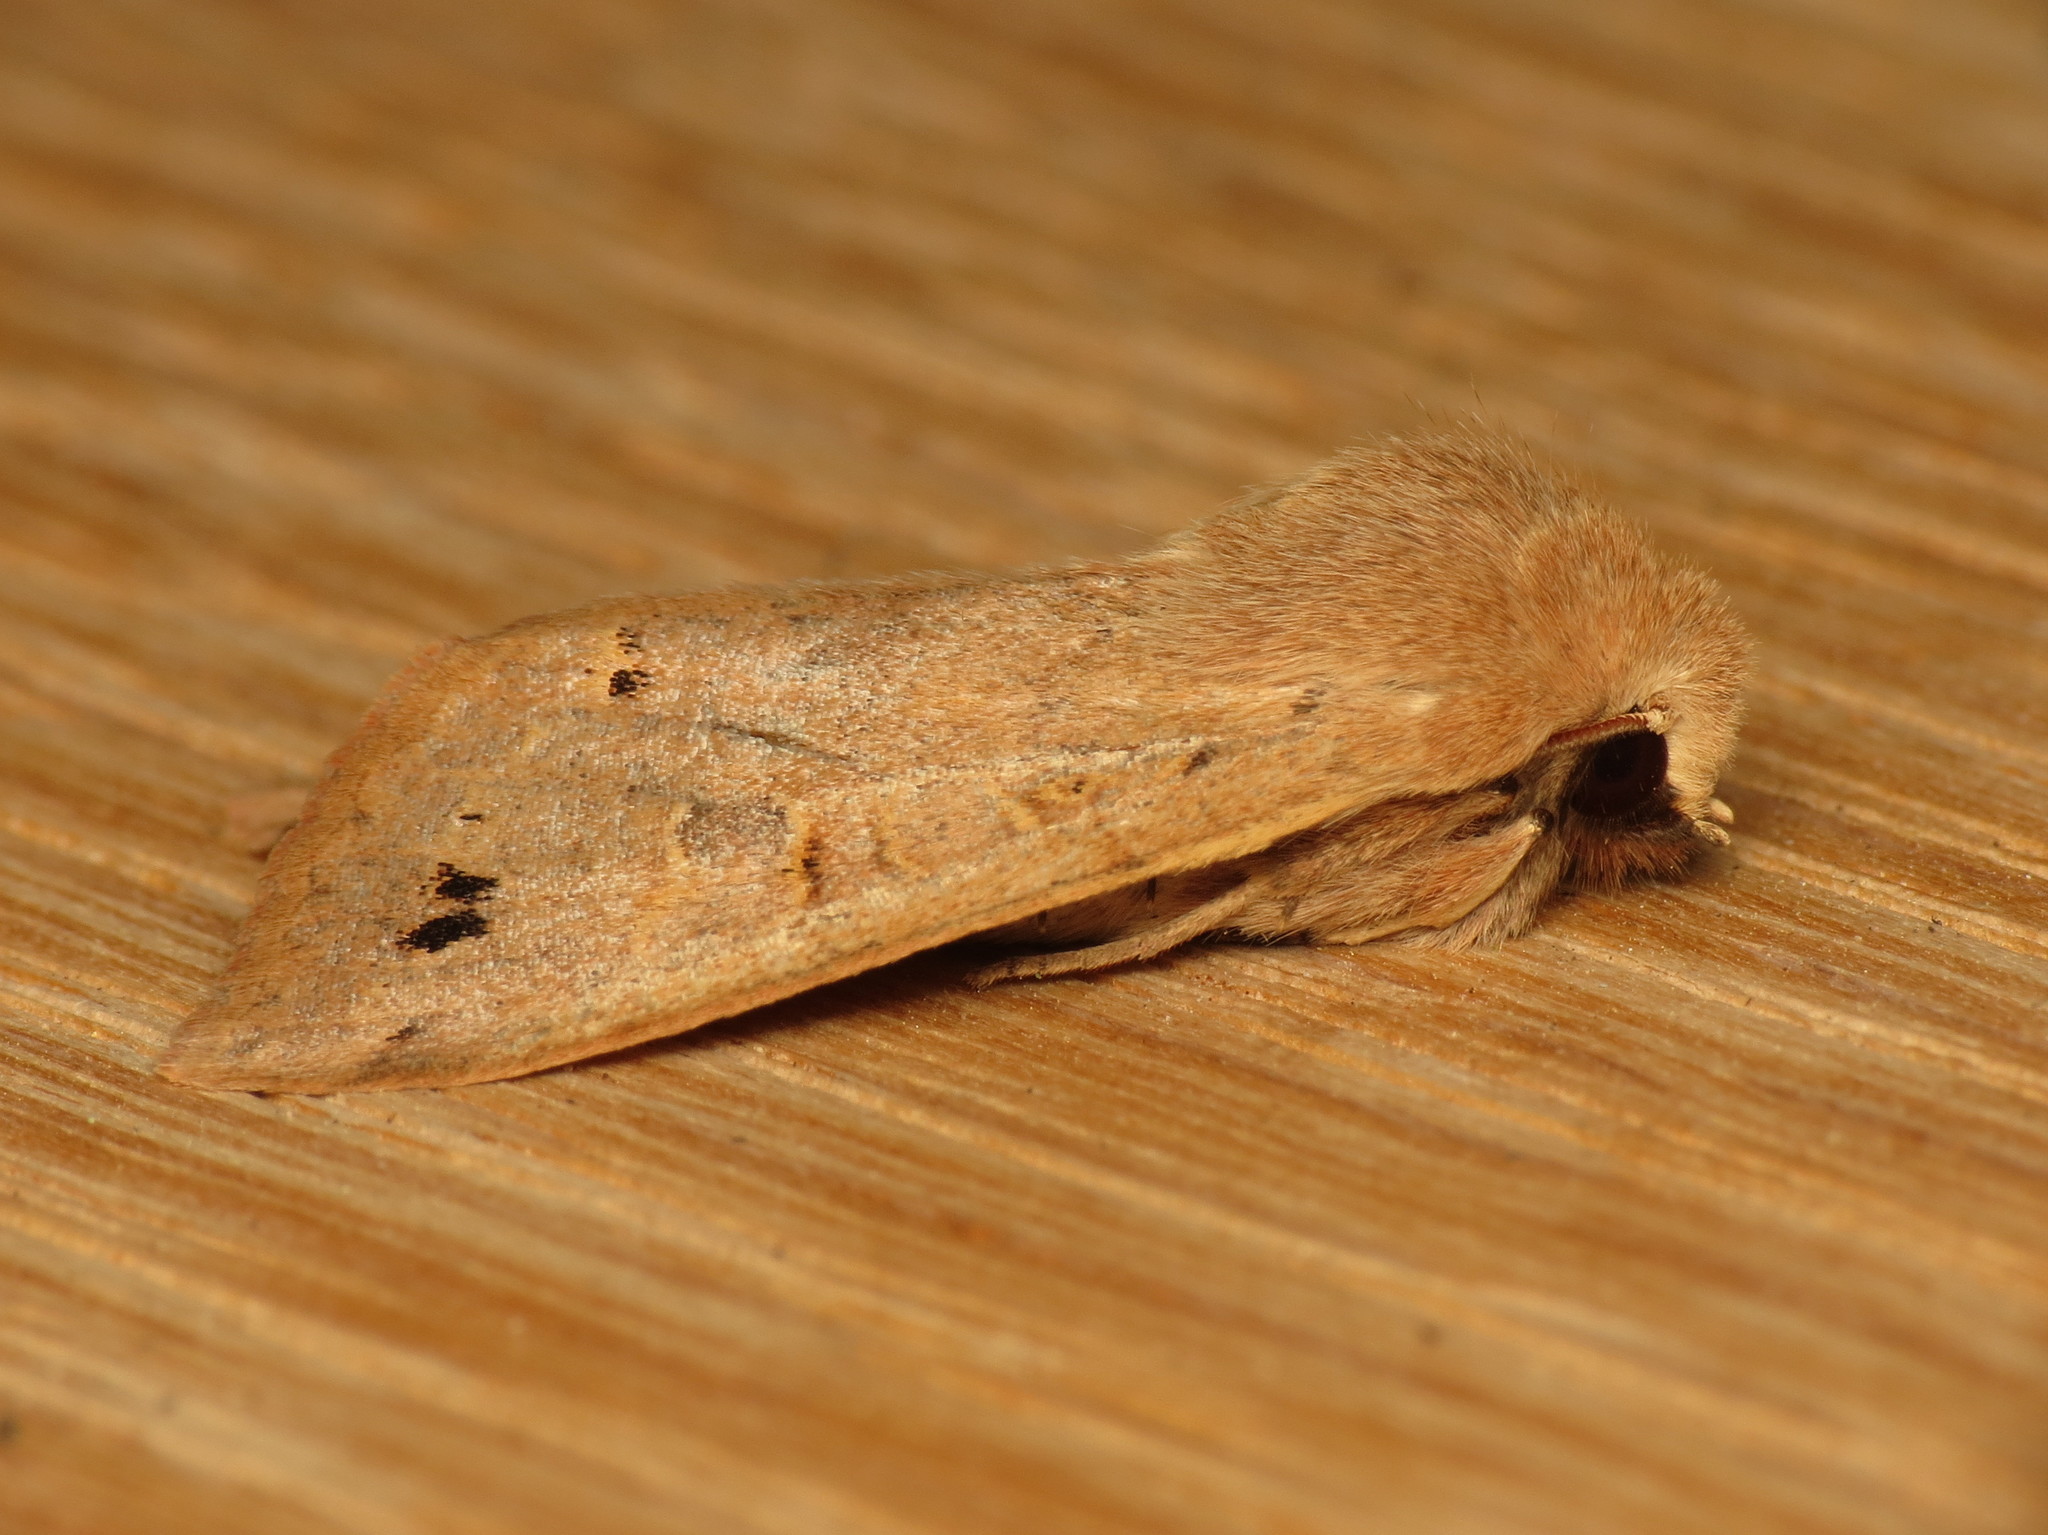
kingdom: Animalia
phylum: Arthropoda
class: Insecta
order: Lepidoptera
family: Noctuidae
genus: Anorthoa
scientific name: Anorthoa munda
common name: Twin-spotted quaker
